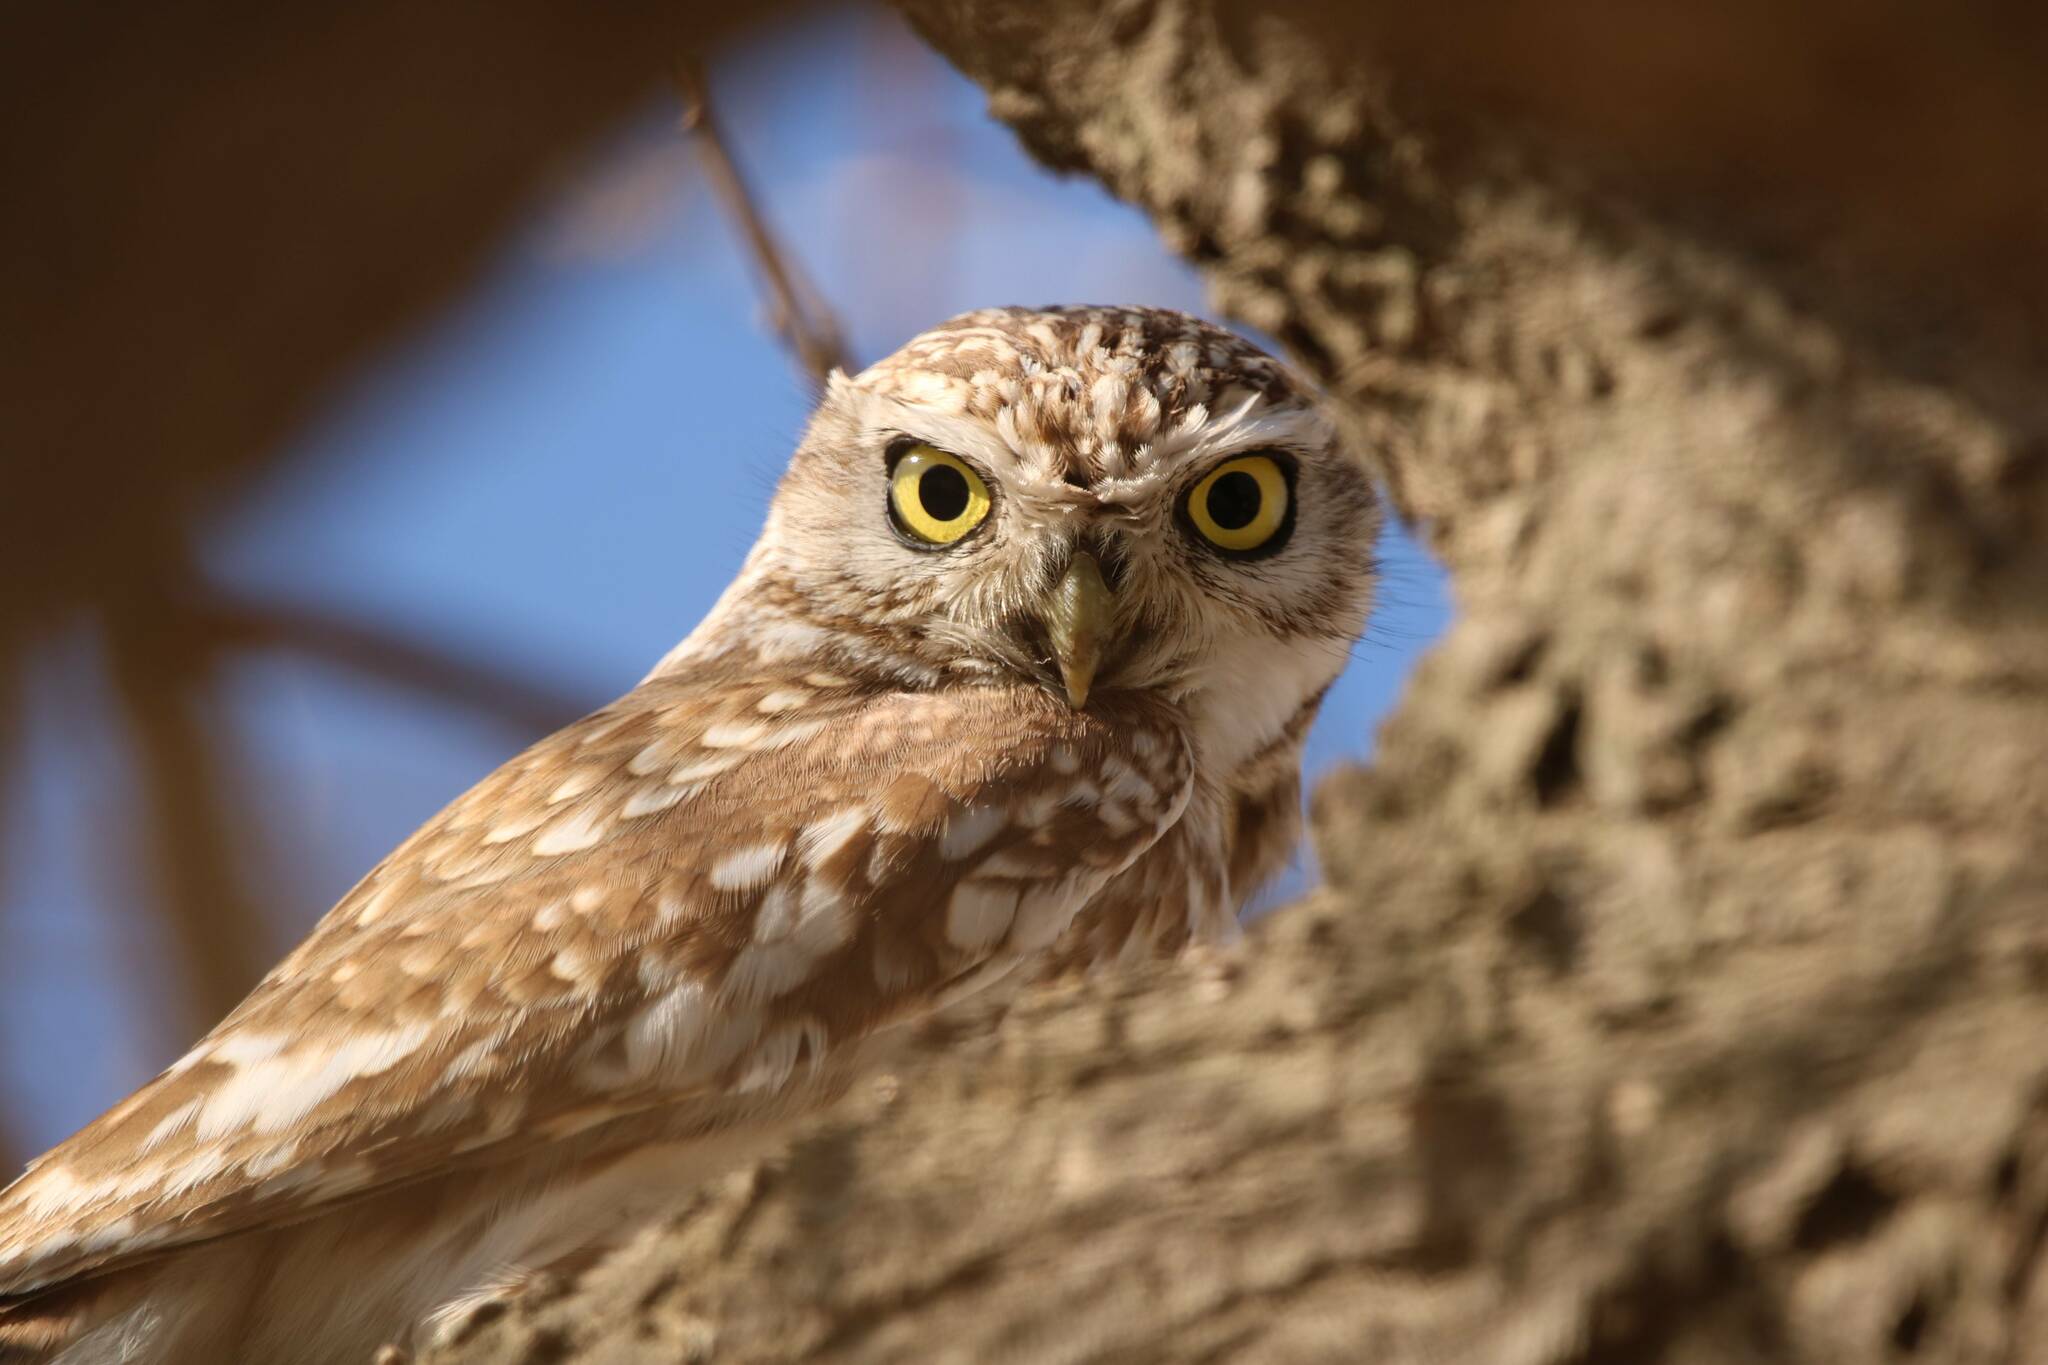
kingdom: Animalia
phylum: Chordata
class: Aves
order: Strigiformes
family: Strigidae
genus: Athene
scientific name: Athene noctua
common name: Little owl
